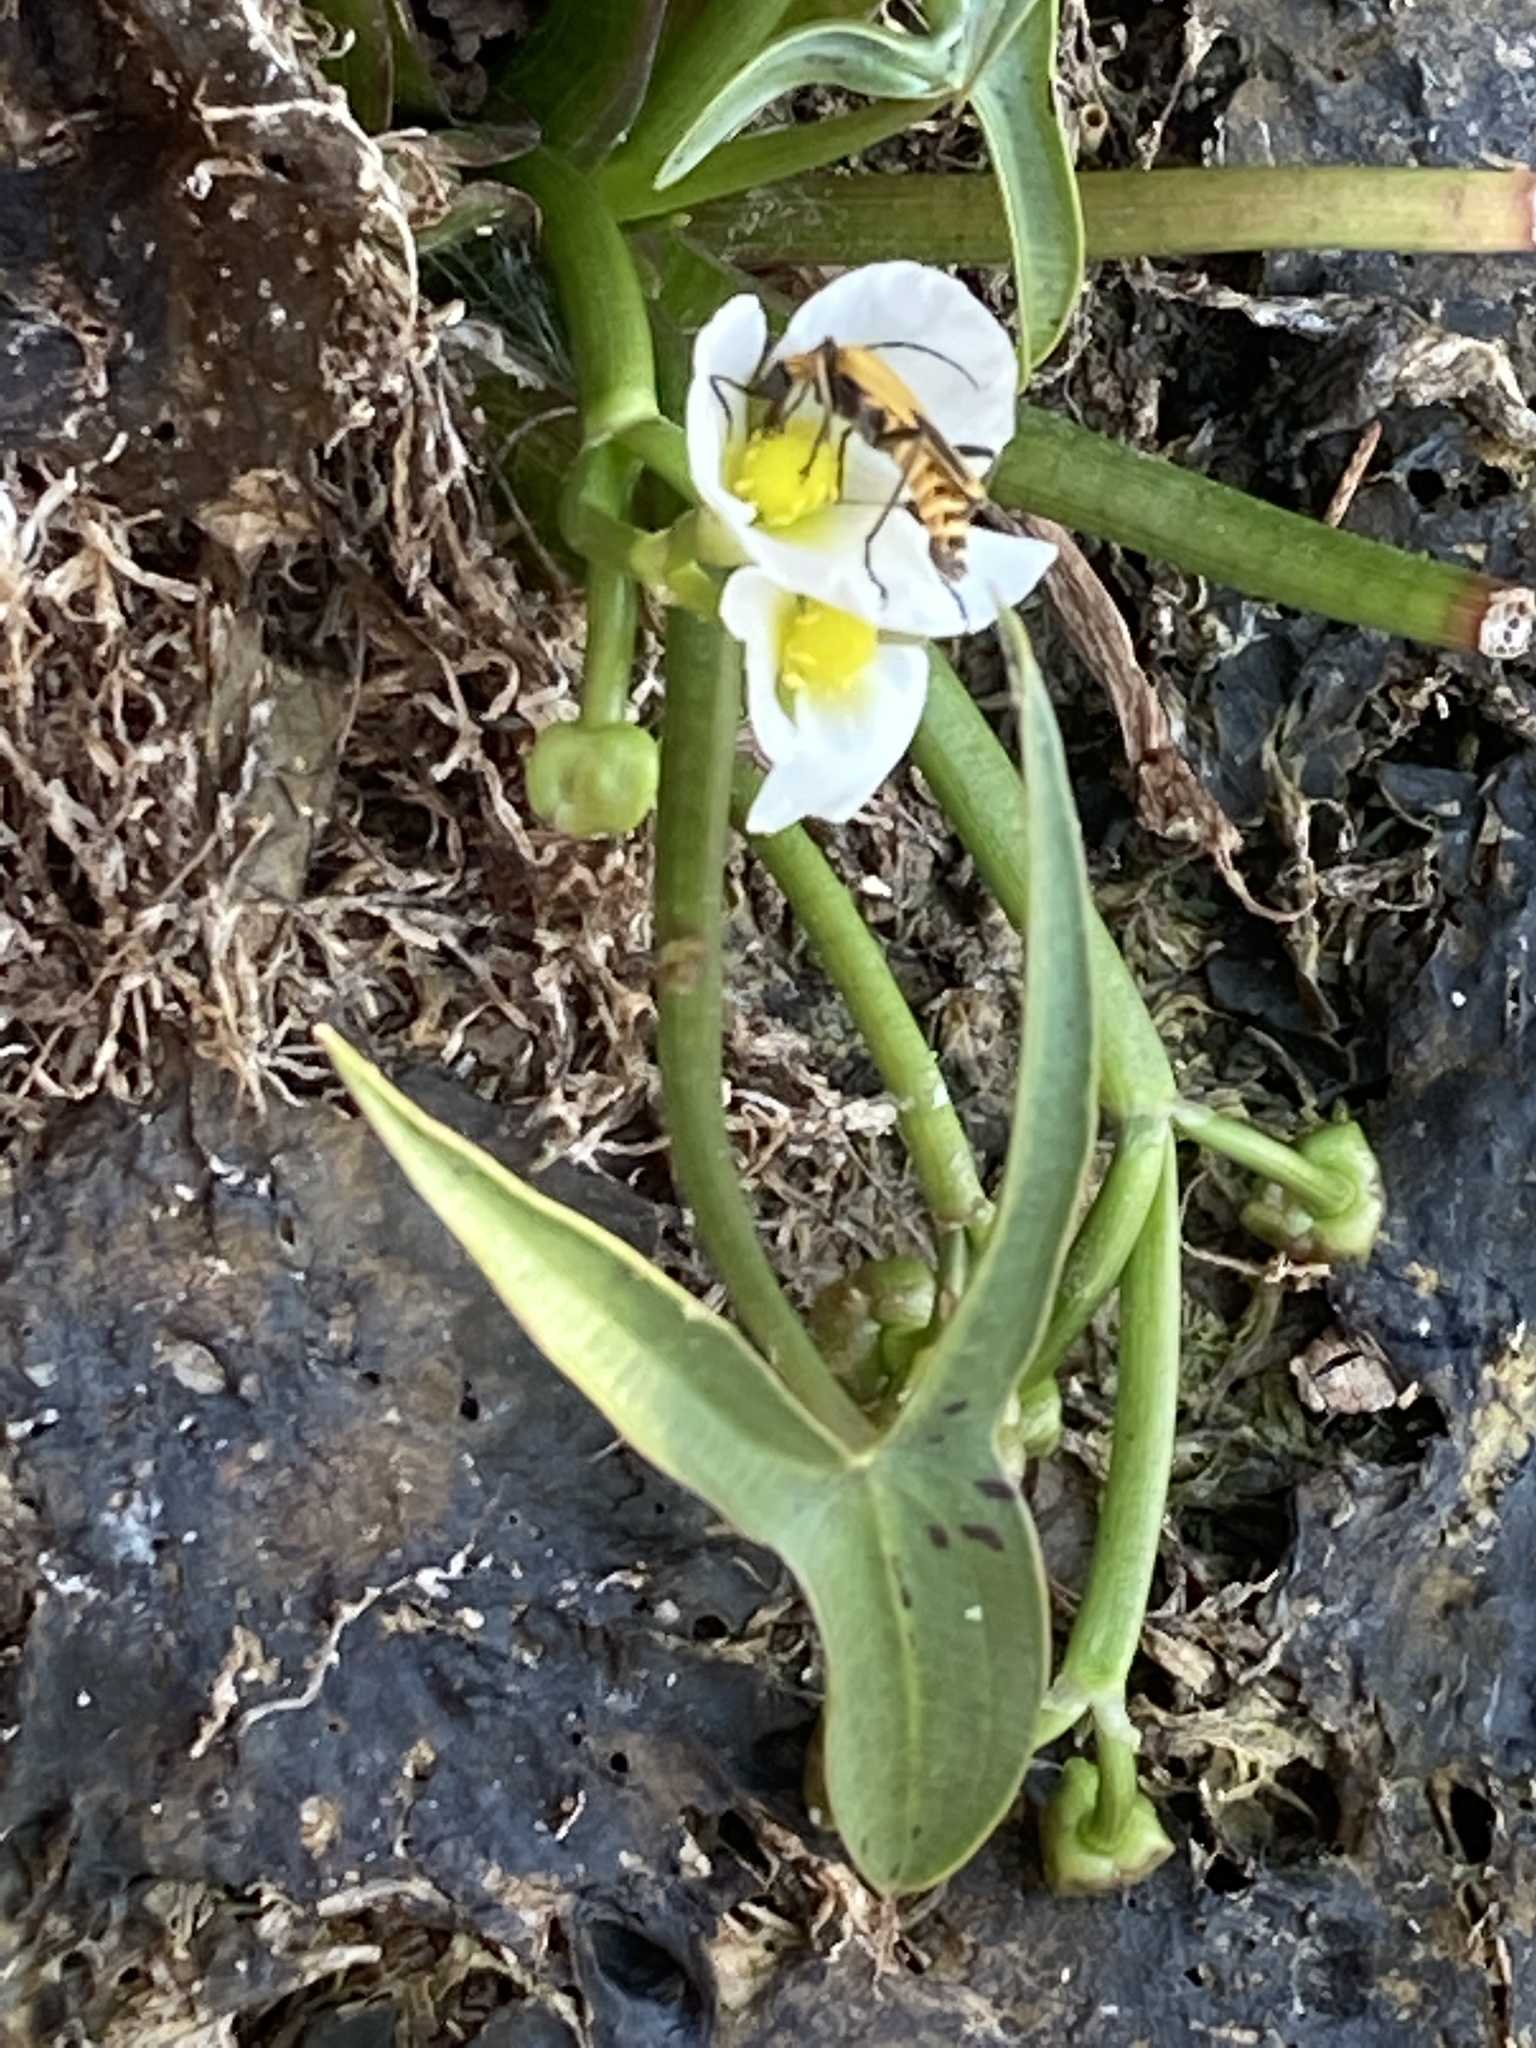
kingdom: Plantae
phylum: Tracheophyta
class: Liliopsida
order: Alismatales
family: Alismataceae
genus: Sagittaria
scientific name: Sagittaria calycina
